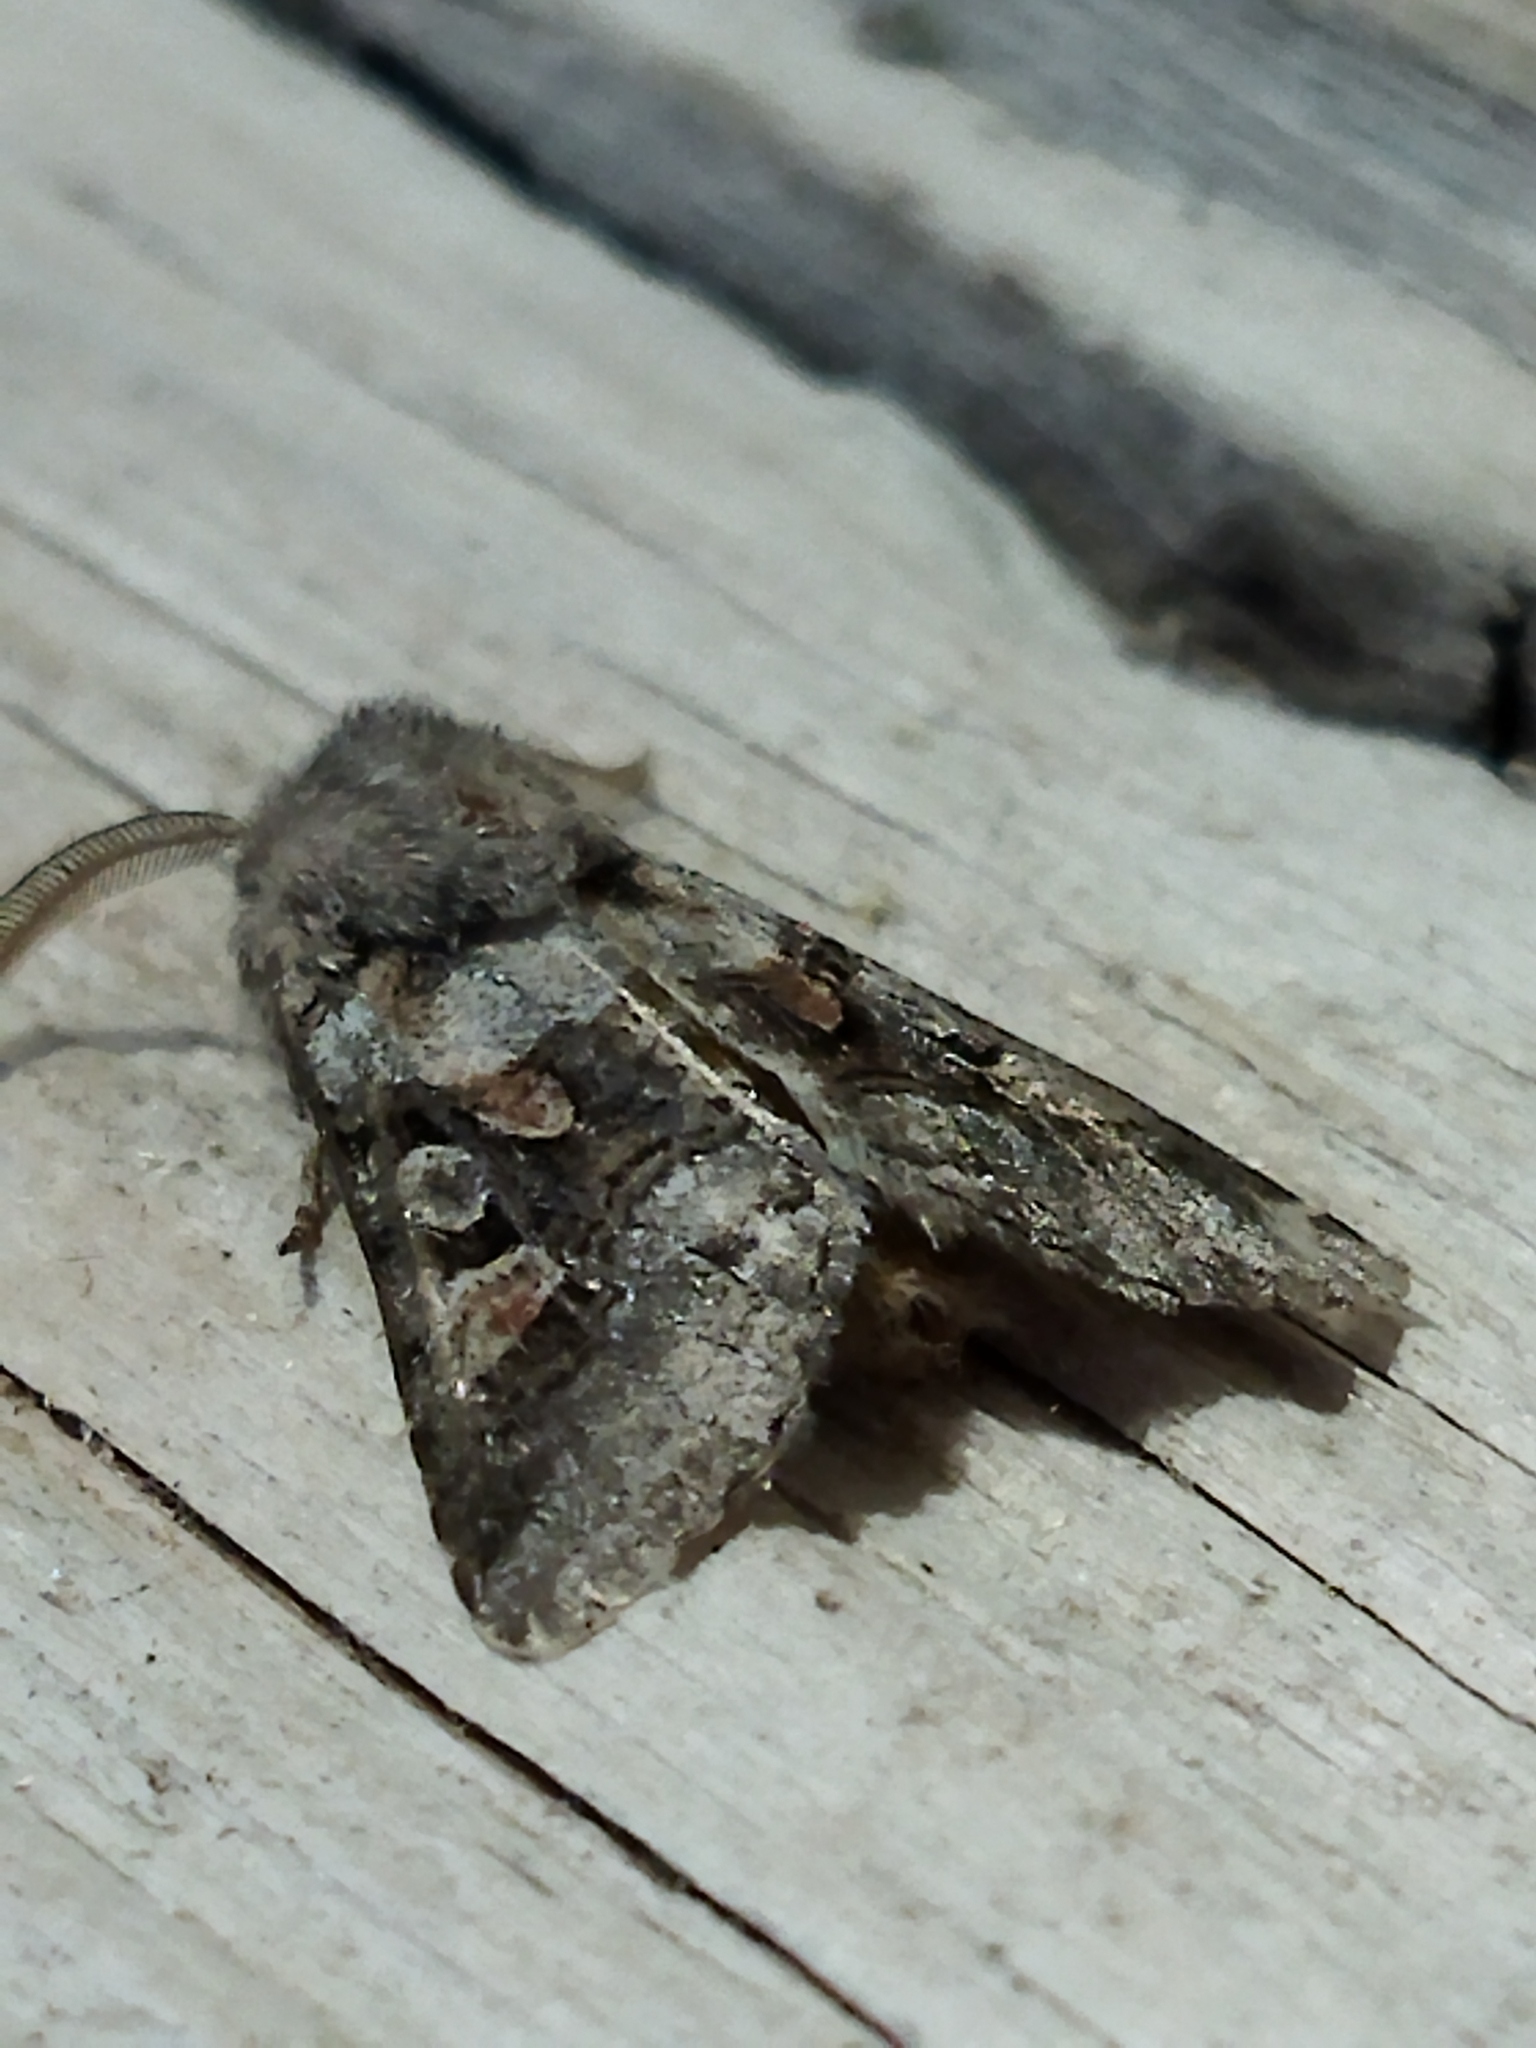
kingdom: Animalia
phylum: Arthropoda
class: Insecta
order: Lepidoptera
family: Noctuidae
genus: Cleoceris
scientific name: Cleoceris scoriacea
